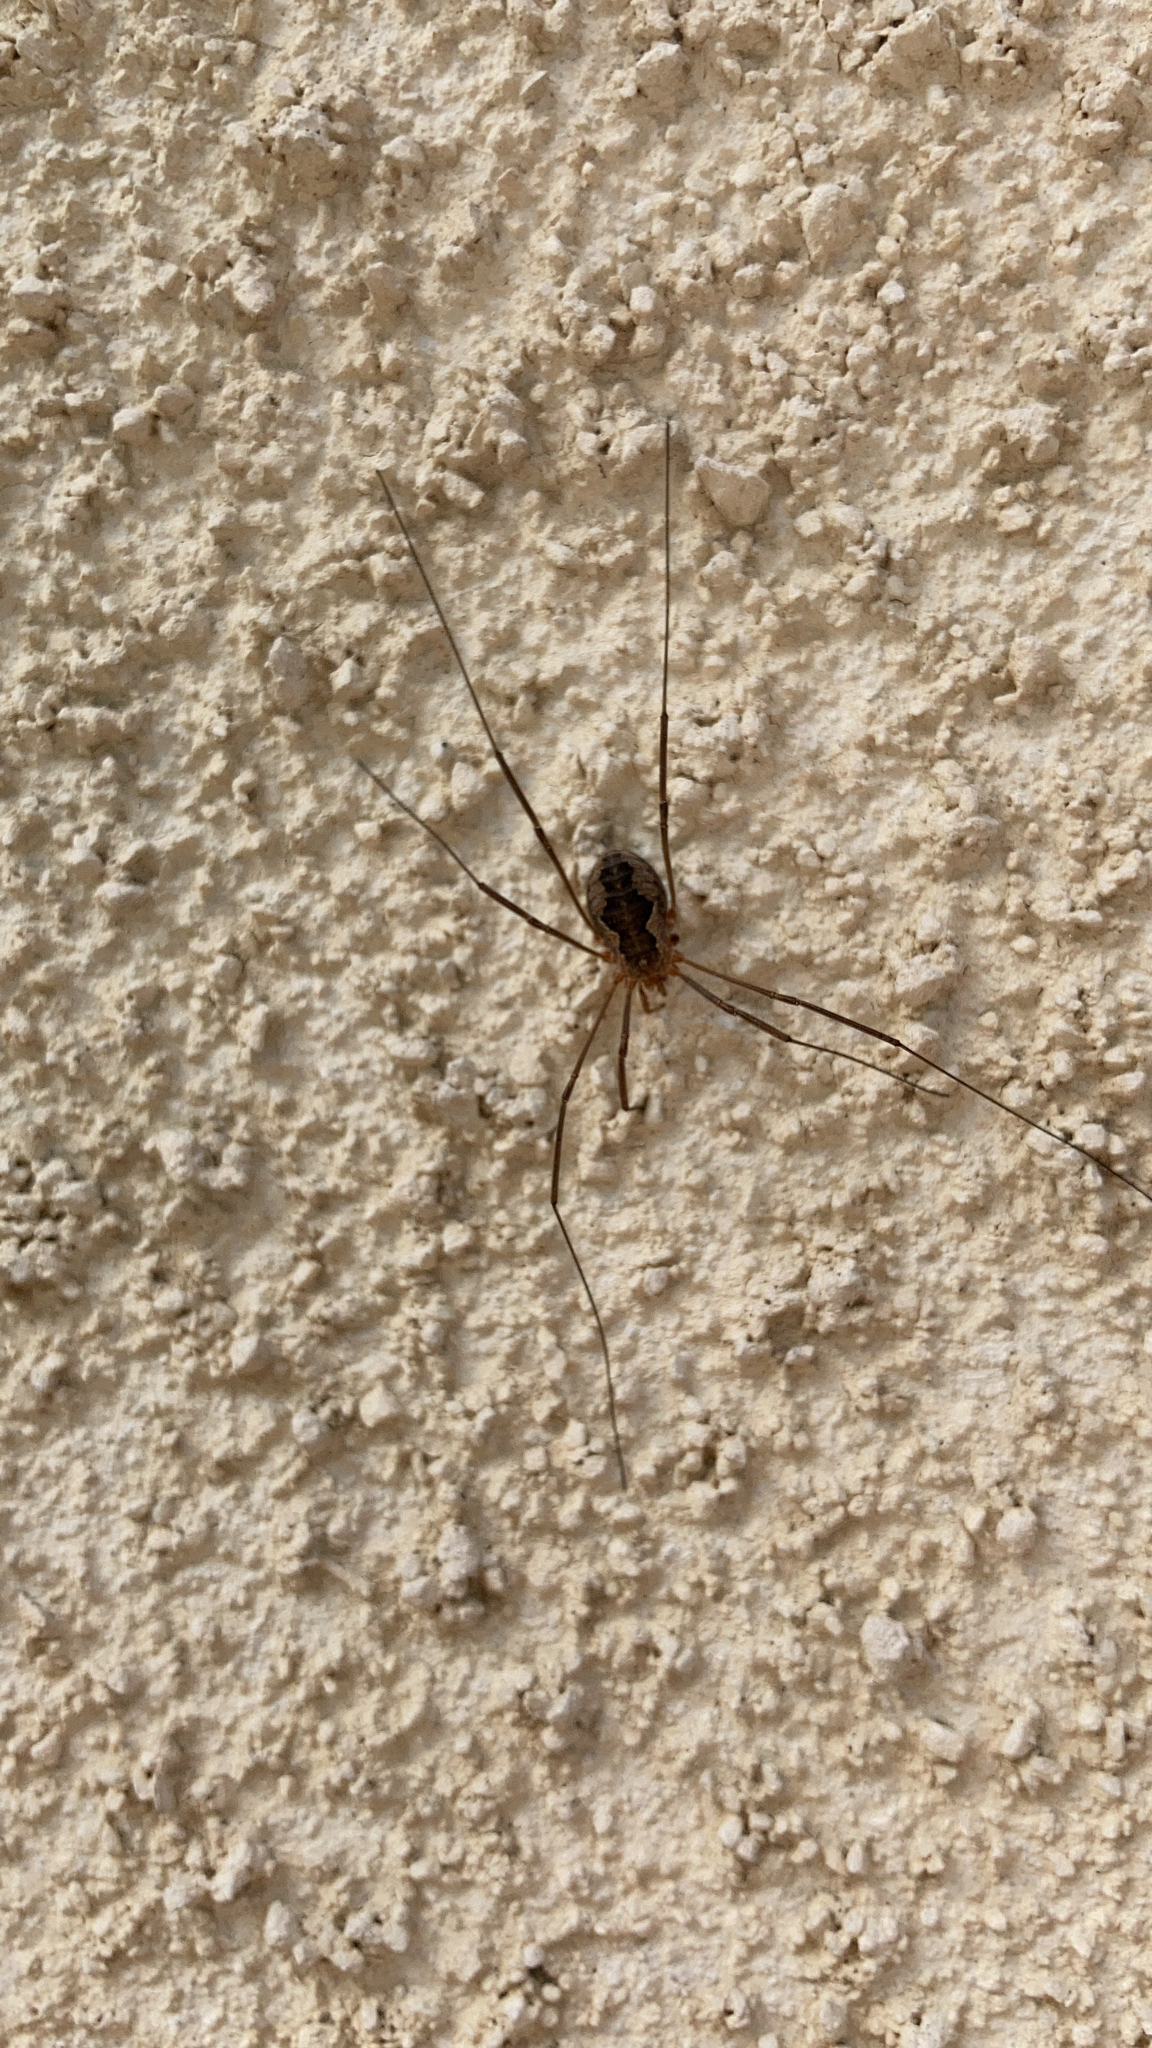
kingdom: Animalia
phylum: Arthropoda
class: Arachnida
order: Opiliones
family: Phalangiidae
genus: Phalangium
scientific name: Phalangium opilio
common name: Daddy longleg
